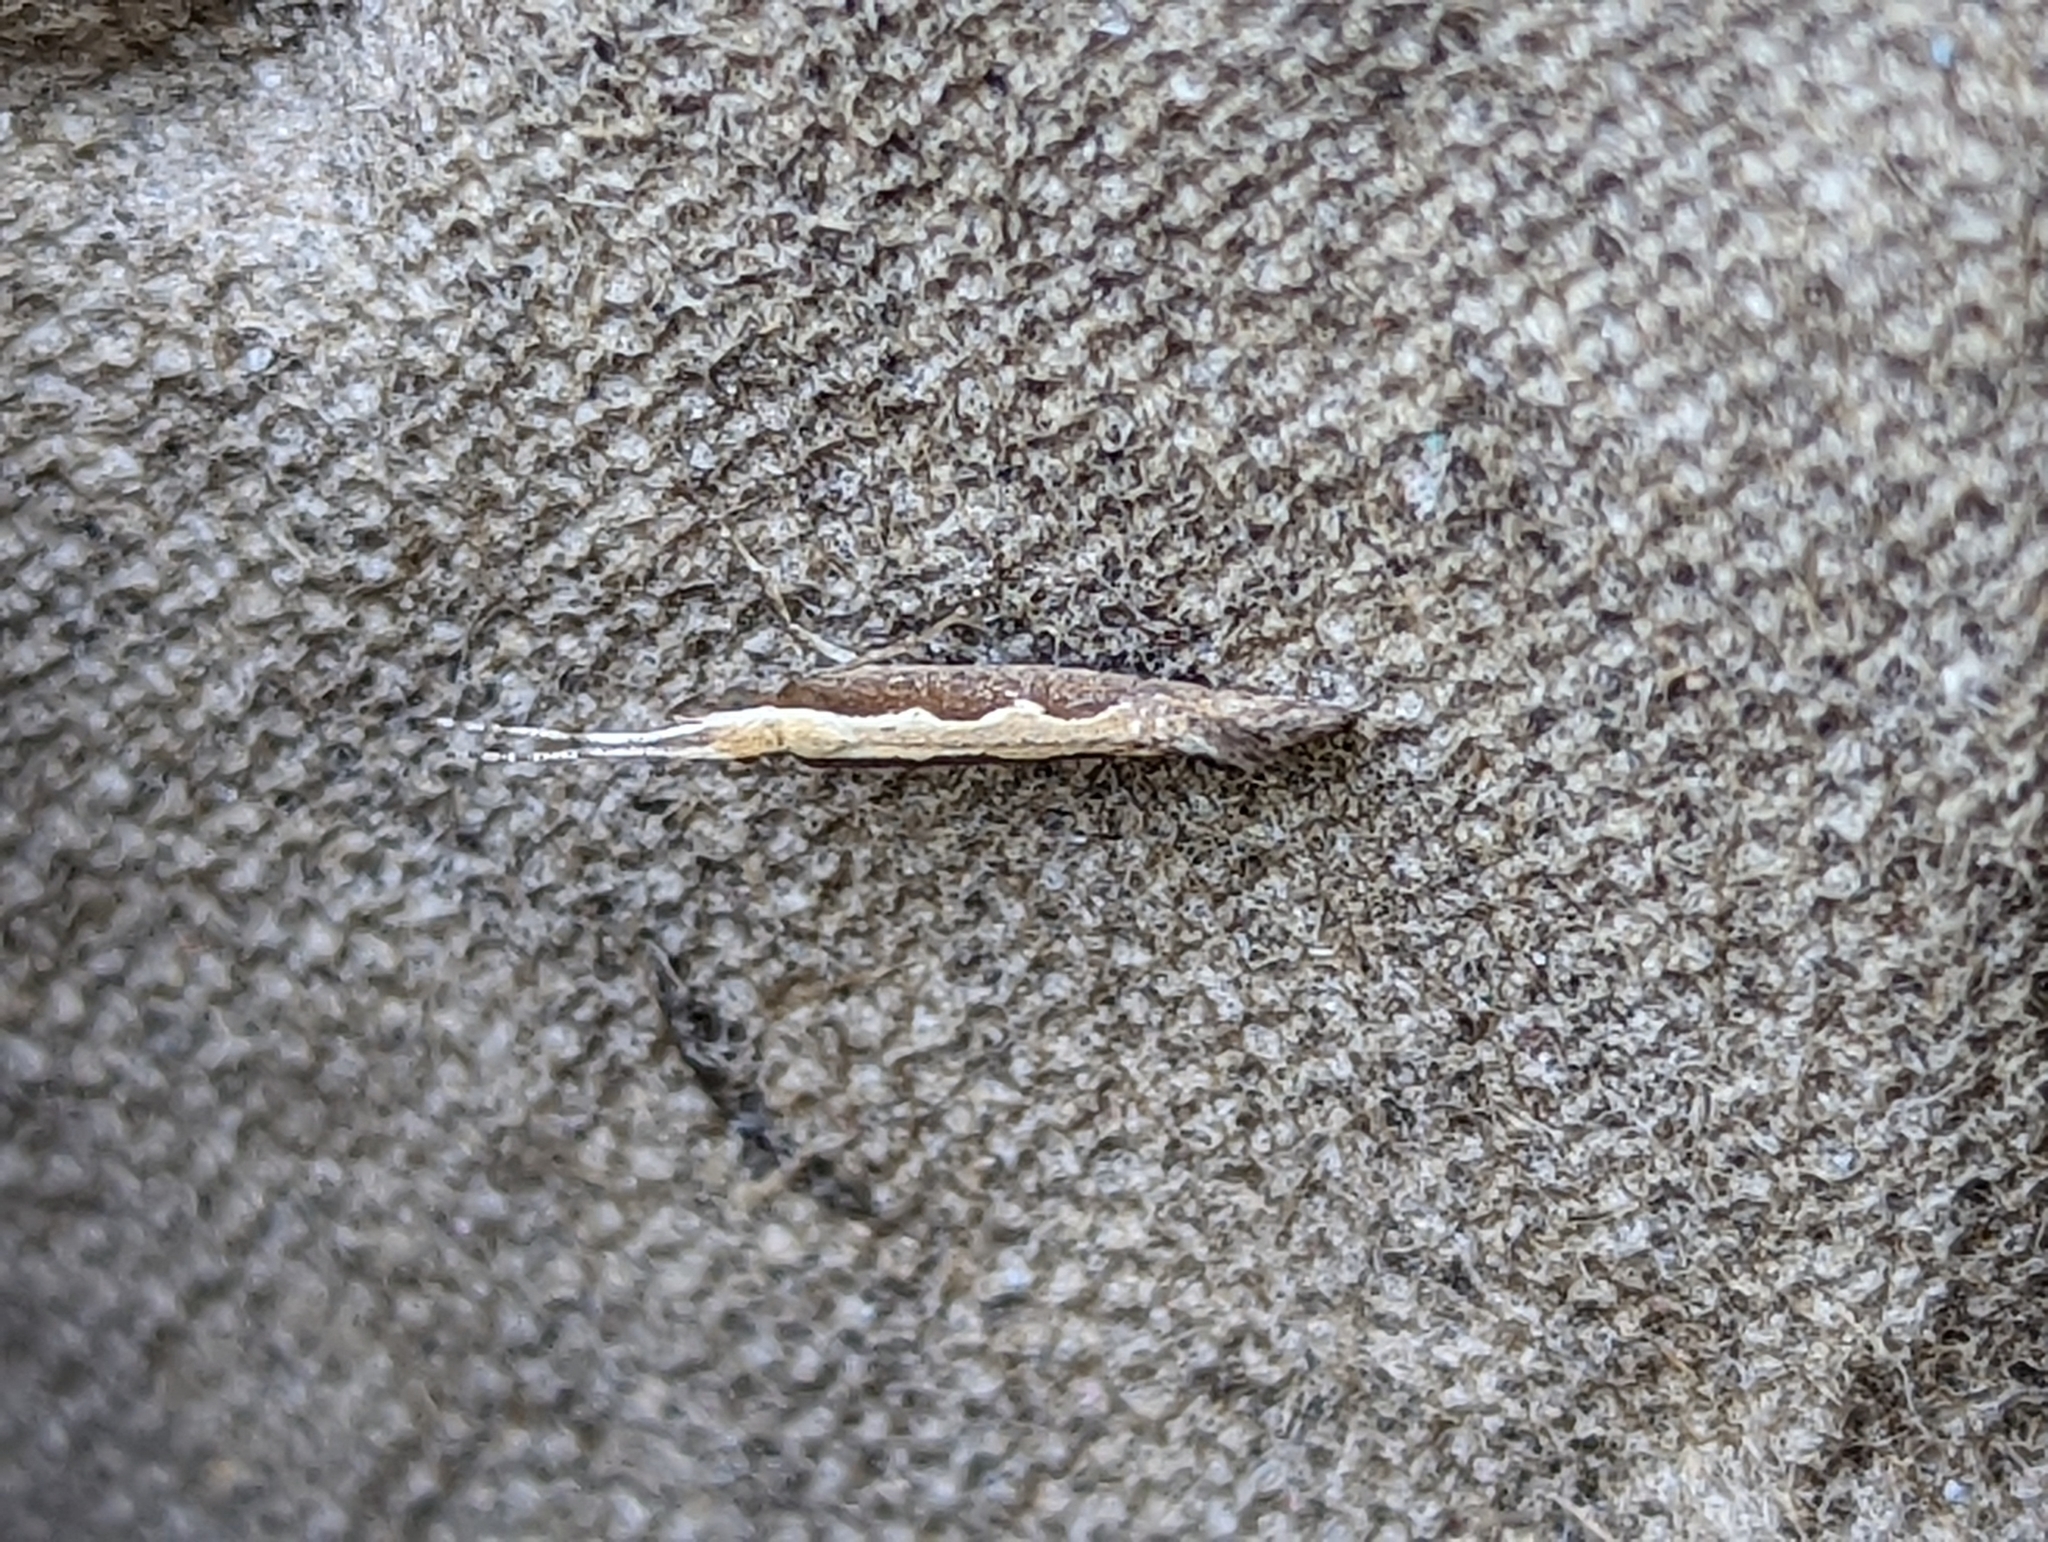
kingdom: Animalia
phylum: Arthropoda
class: Insecta
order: Lepidoptera
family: Plutellidae
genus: Plutella
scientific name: Plutella xylostella
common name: Diamond-back moth
